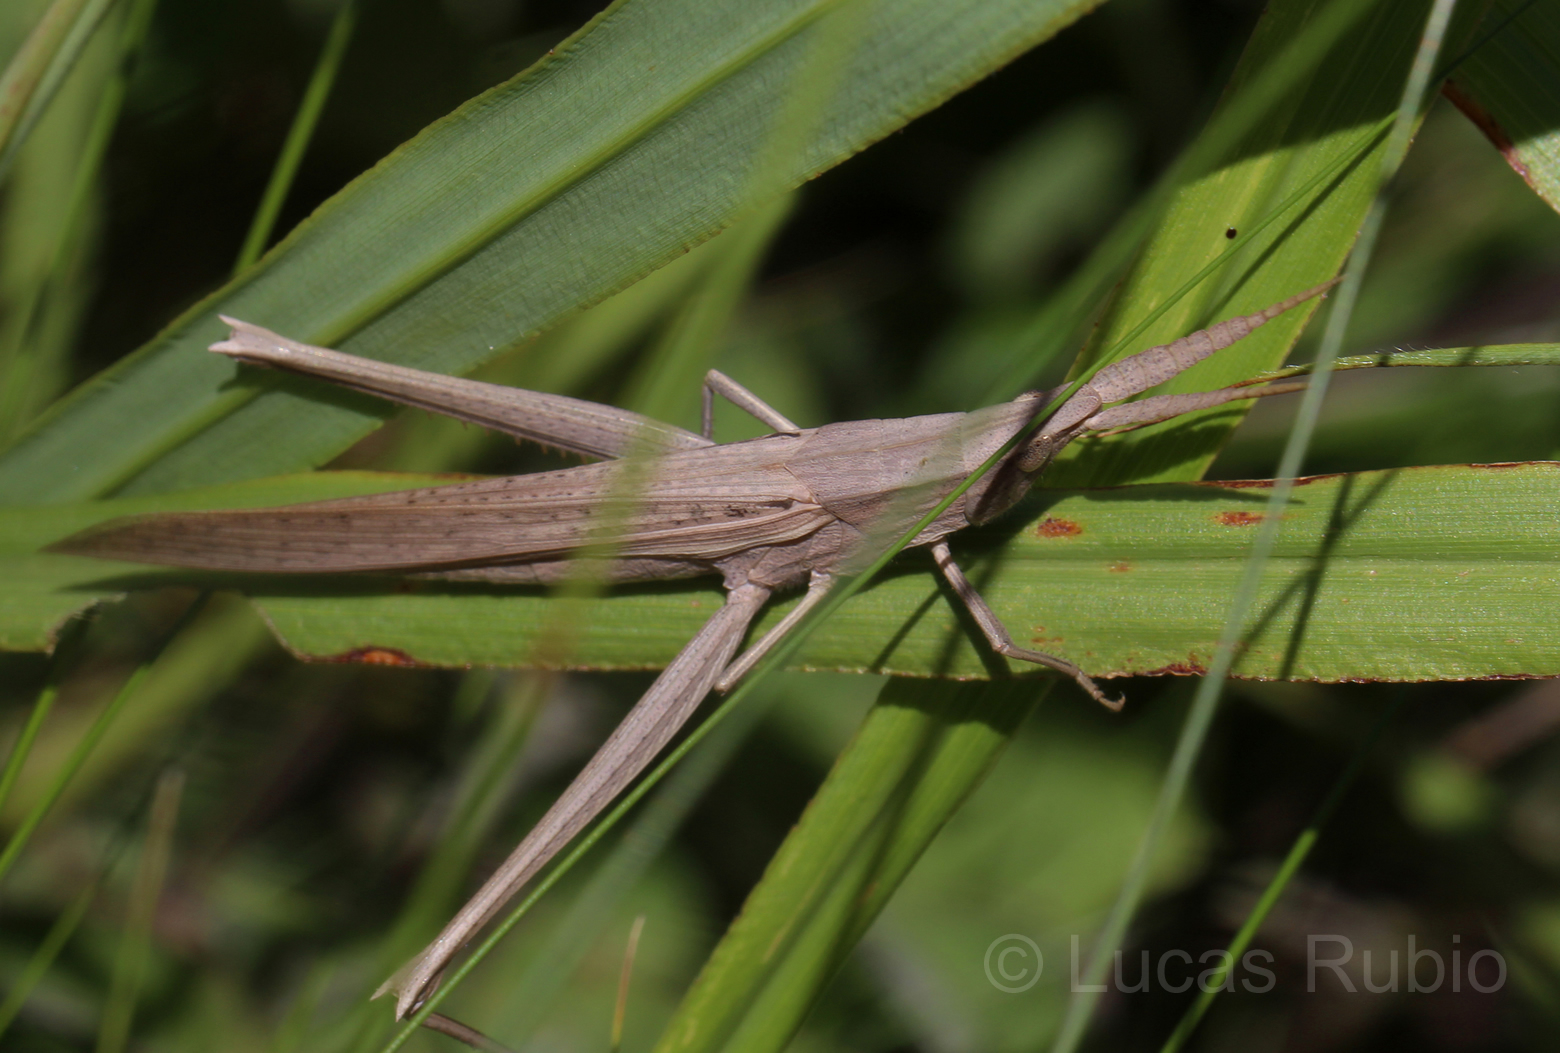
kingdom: Animalia
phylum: Arthropoda
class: Insecta
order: Orthoptera
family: Acrididae
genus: Hyalopteryx
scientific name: Hyalopteryx rufipennis
